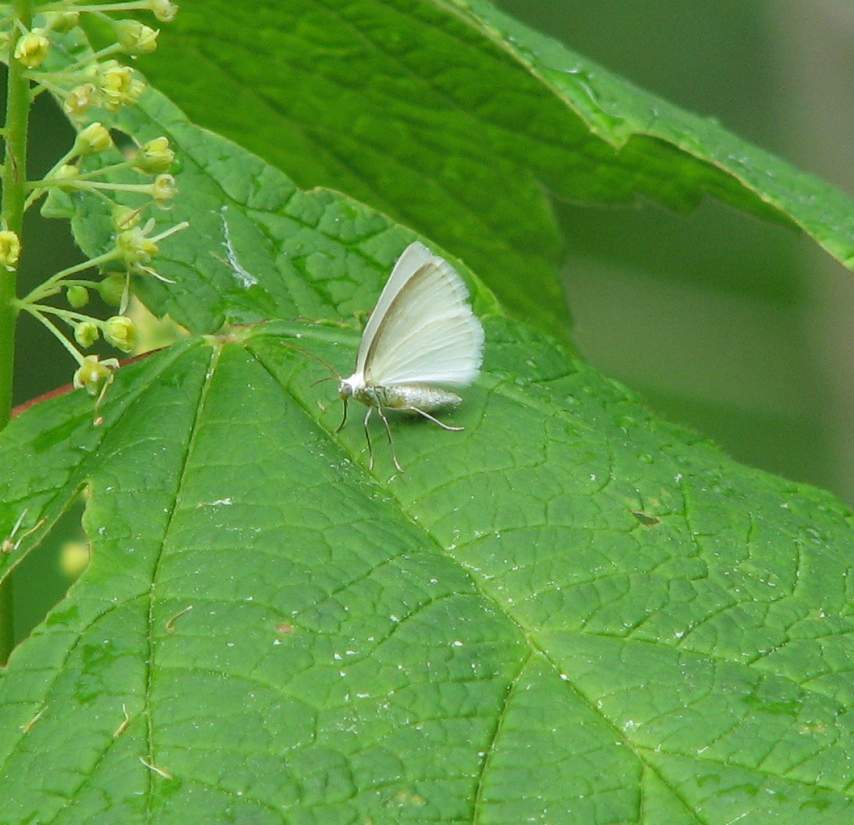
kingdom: Animalia
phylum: Arthropoda
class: Insecta
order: Lepidoptera
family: Geometridae
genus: Lomographa
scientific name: Lomographa vestaliata
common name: White spring moth
